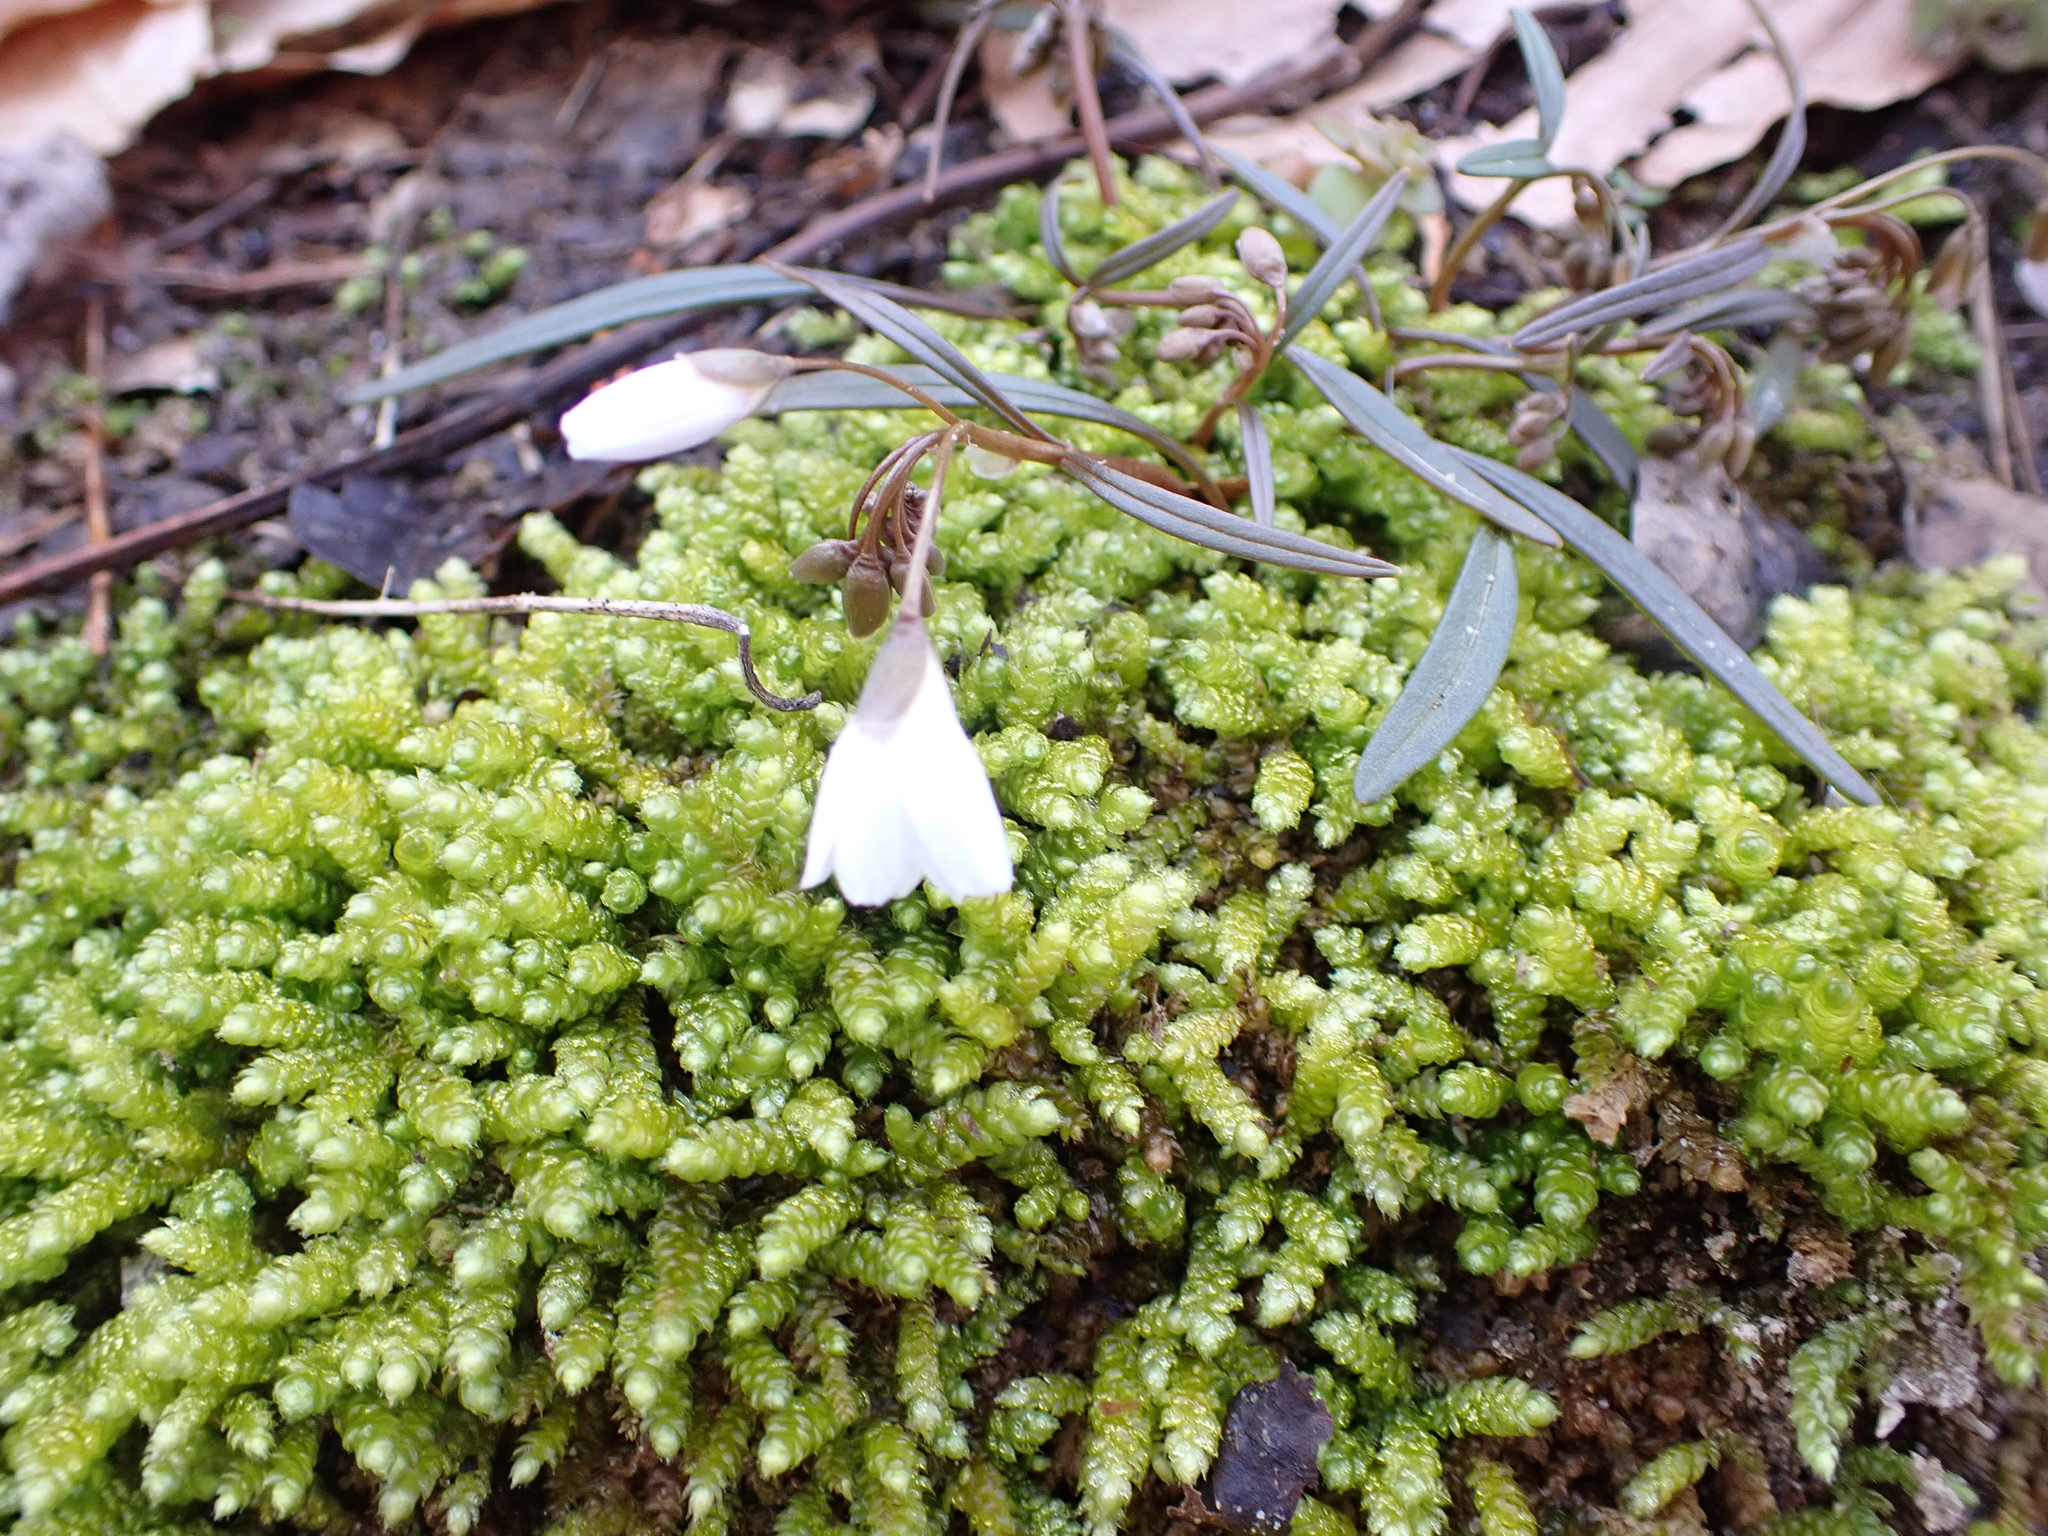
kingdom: Plantae
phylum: Tracheophyta
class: Magnoliopsida
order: Caryophyllales
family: Montiaceae
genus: Claytonia
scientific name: Claytonia virginica
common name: Virginia springbeauty
